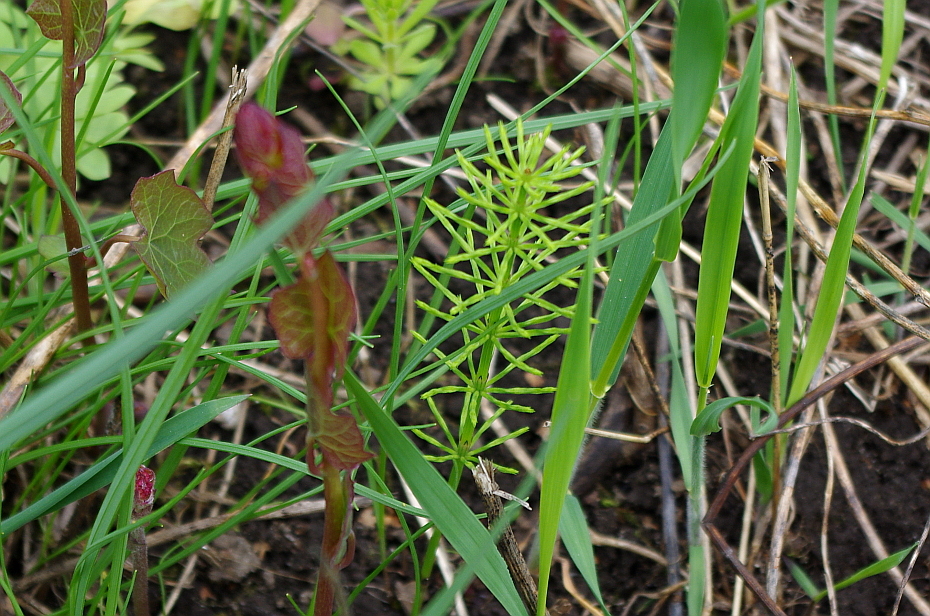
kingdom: Plantae
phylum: Tracheophyta
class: Polypodiopsida
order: Equisetales
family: Equisetaceae
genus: Equisetum
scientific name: Equisetum arvense
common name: Field horsetail
